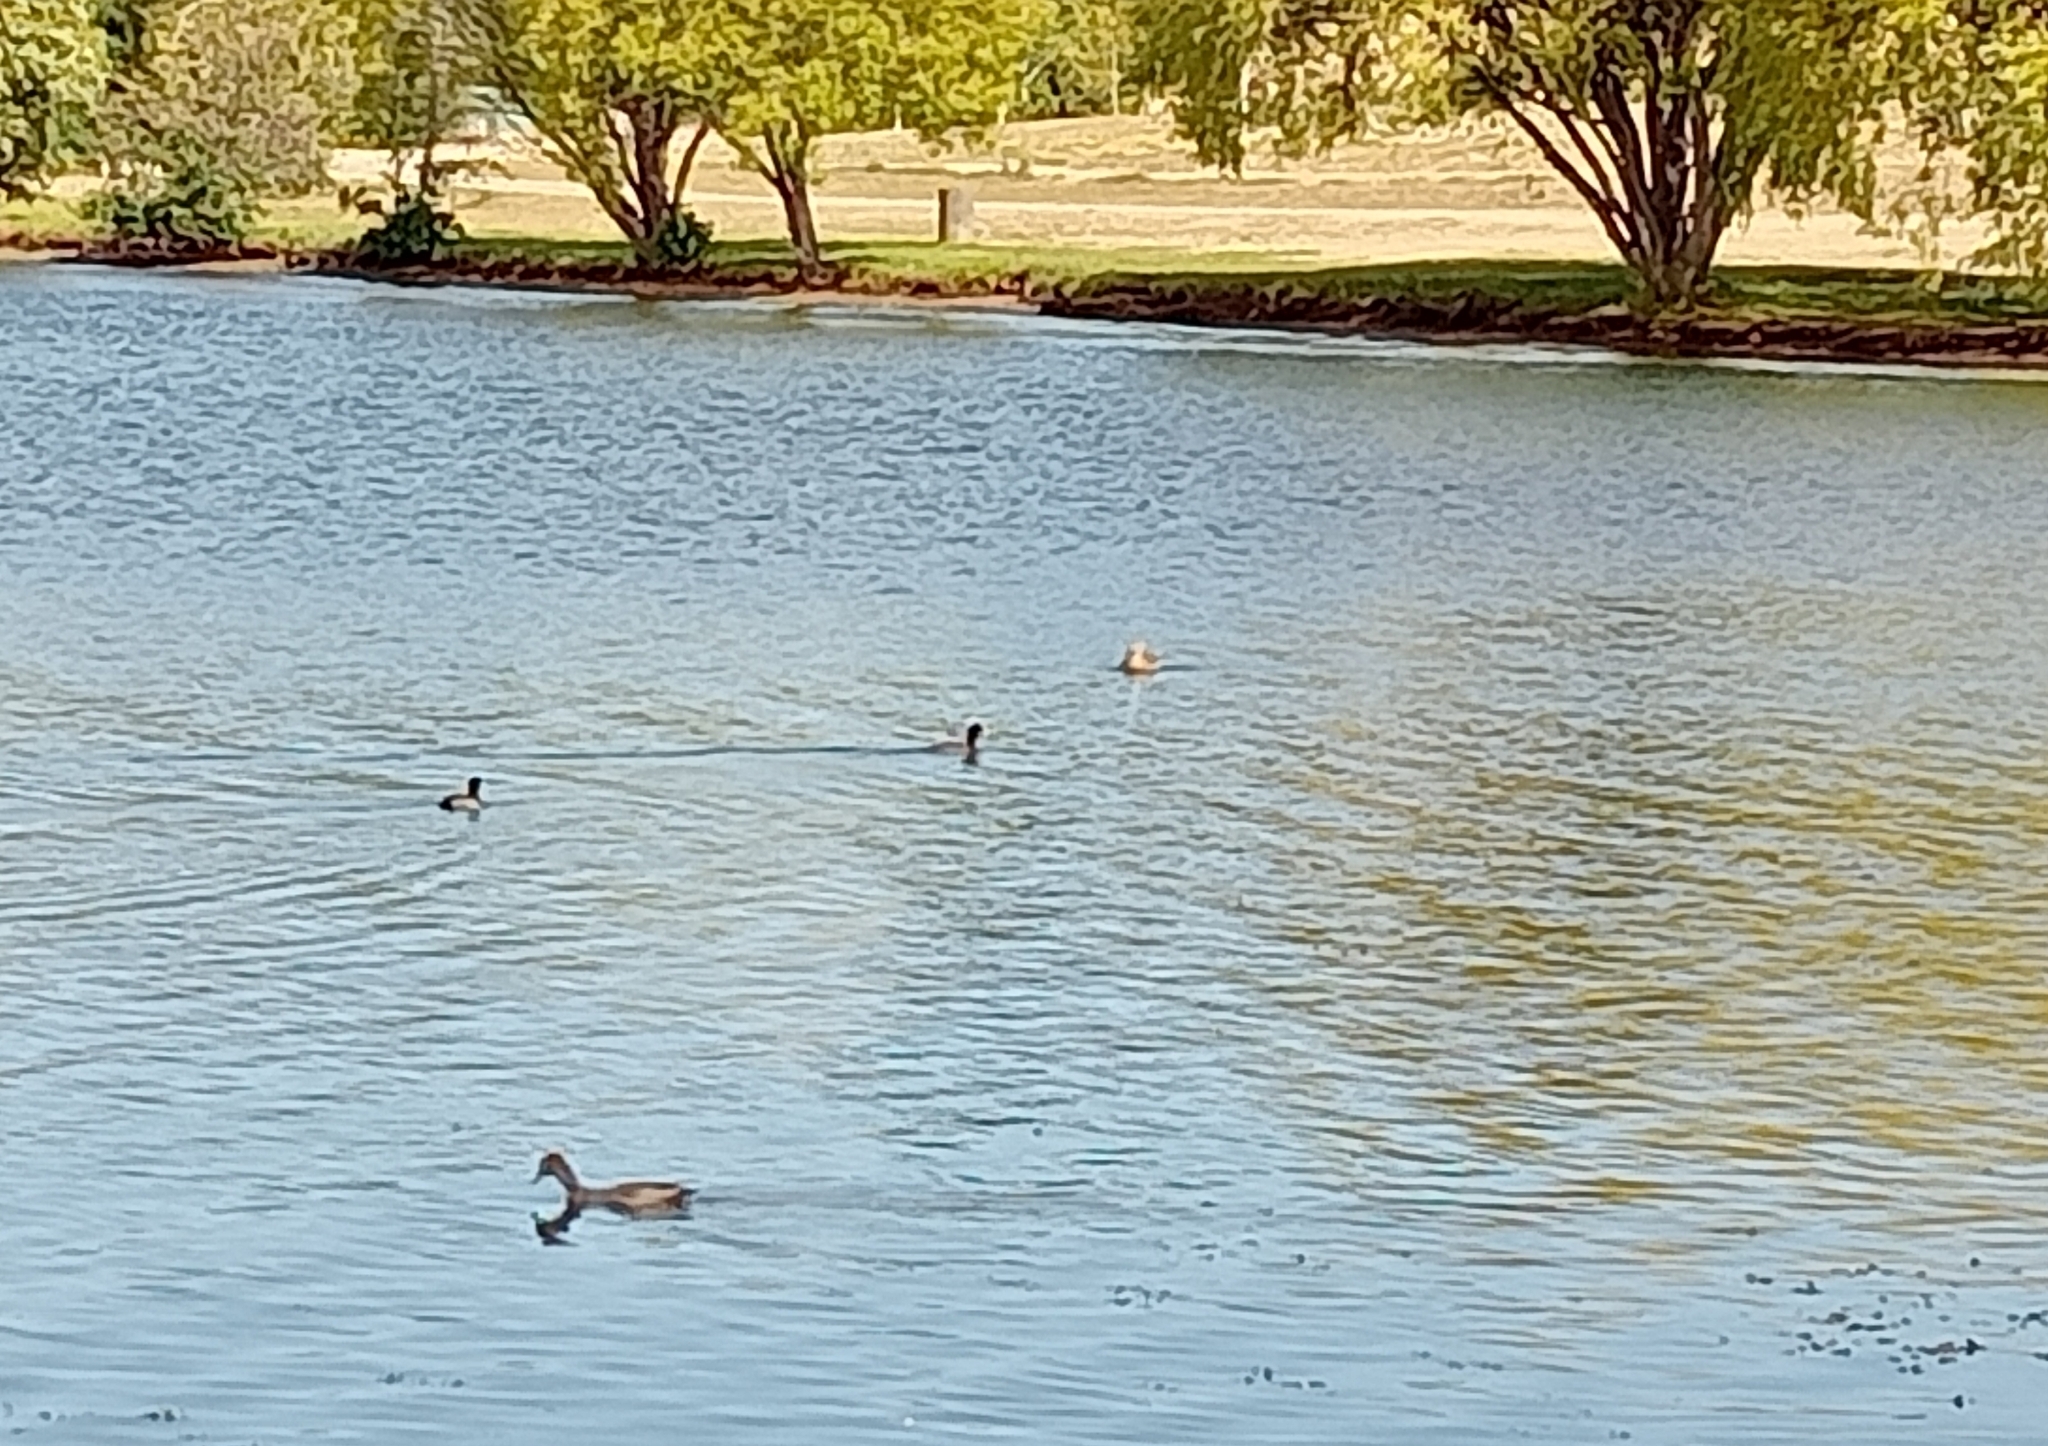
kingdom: Animalia
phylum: Chordata
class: Aves
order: Gruiformes
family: Rallidae
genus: Fulica
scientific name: Fulica atra
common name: Eurasian coot
